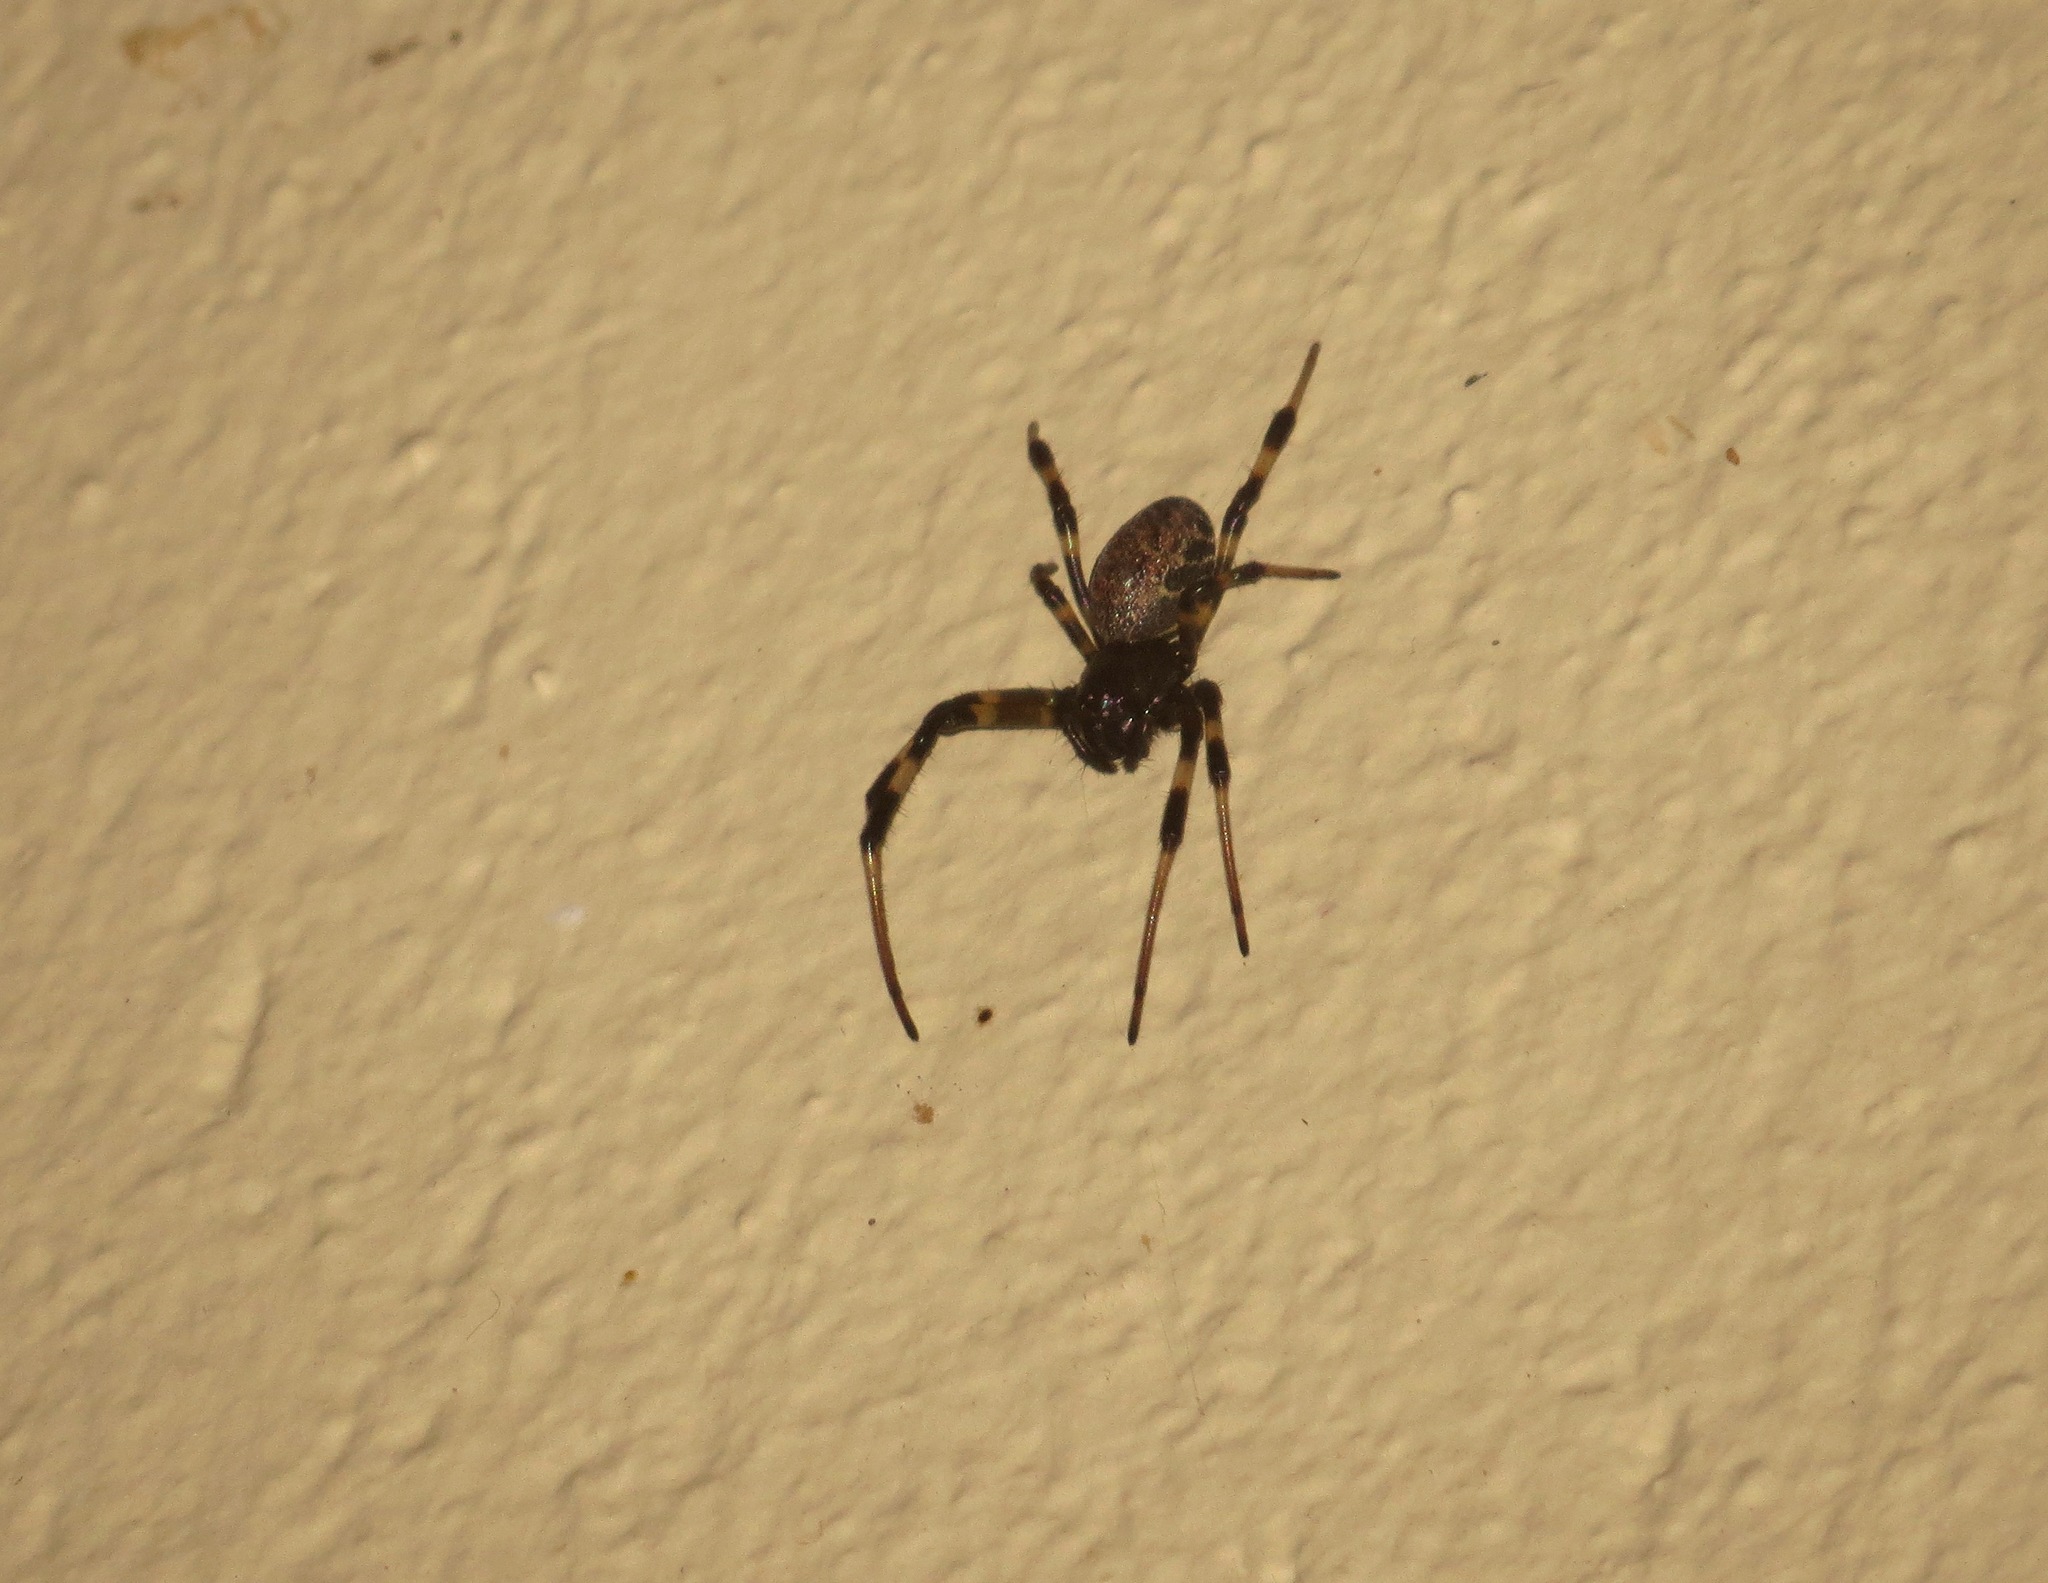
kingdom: Animalia
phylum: Arthropoda
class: Arachnida
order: Araneae
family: Araneidae
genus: Nephilengys
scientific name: Nephilengys malabarensis
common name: Asian hermit spider
